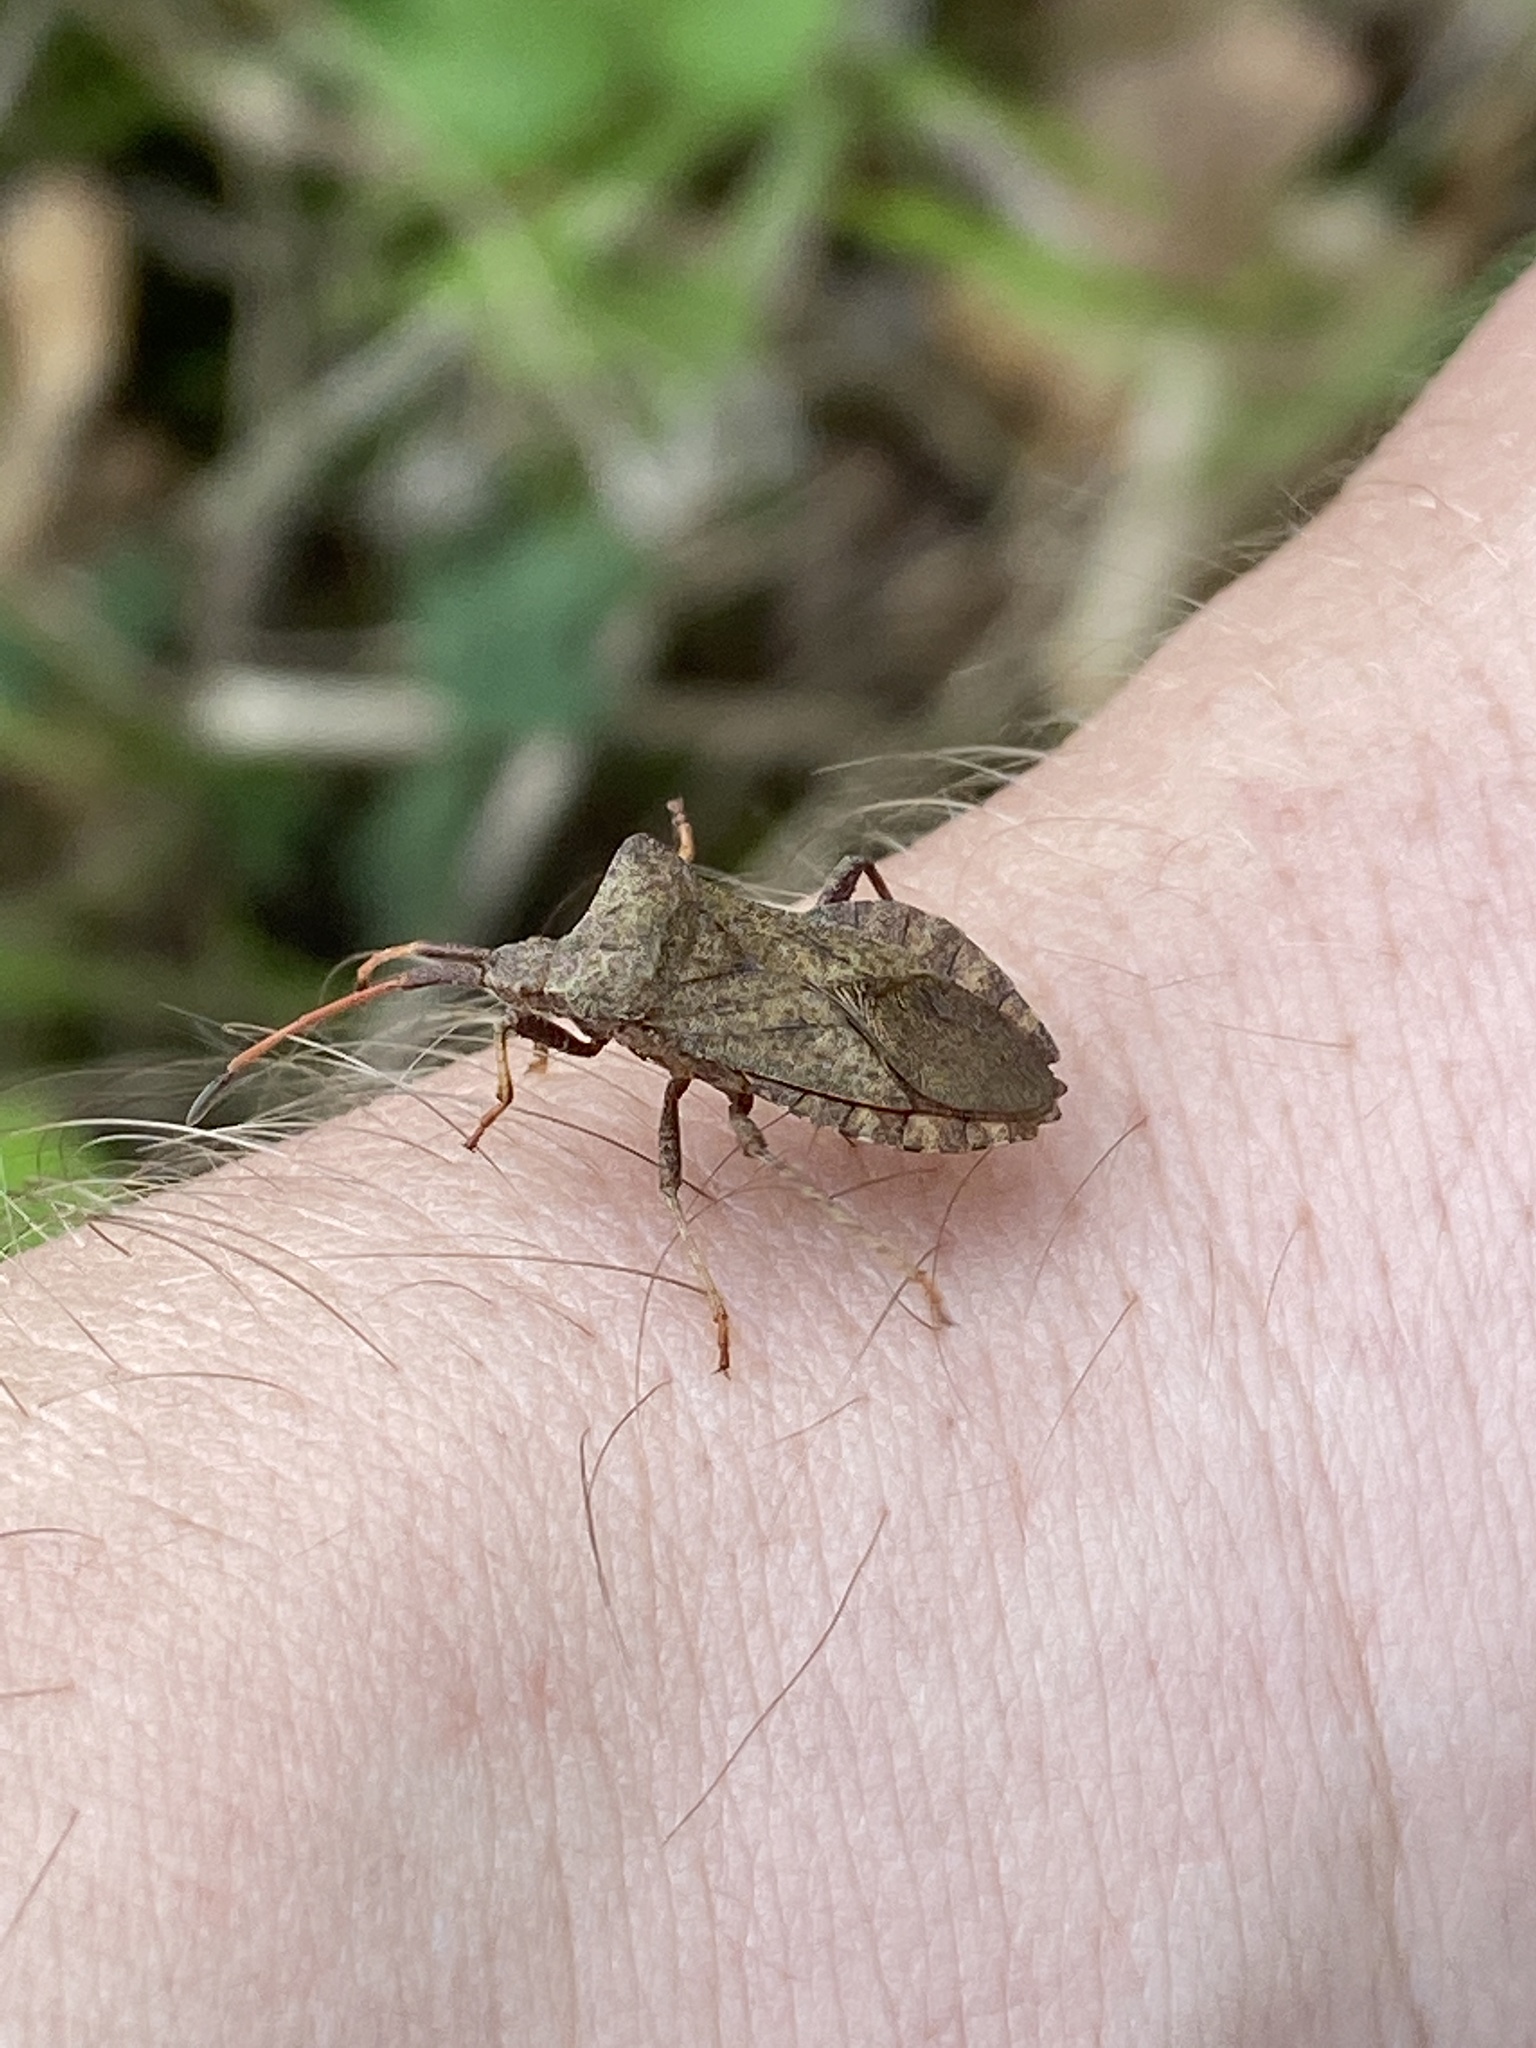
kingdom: Animalia
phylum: Arthropoda
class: Insecta
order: Hemiptera
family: Coreidae
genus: Coreus
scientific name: Coreus marginatus
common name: Dock bug
